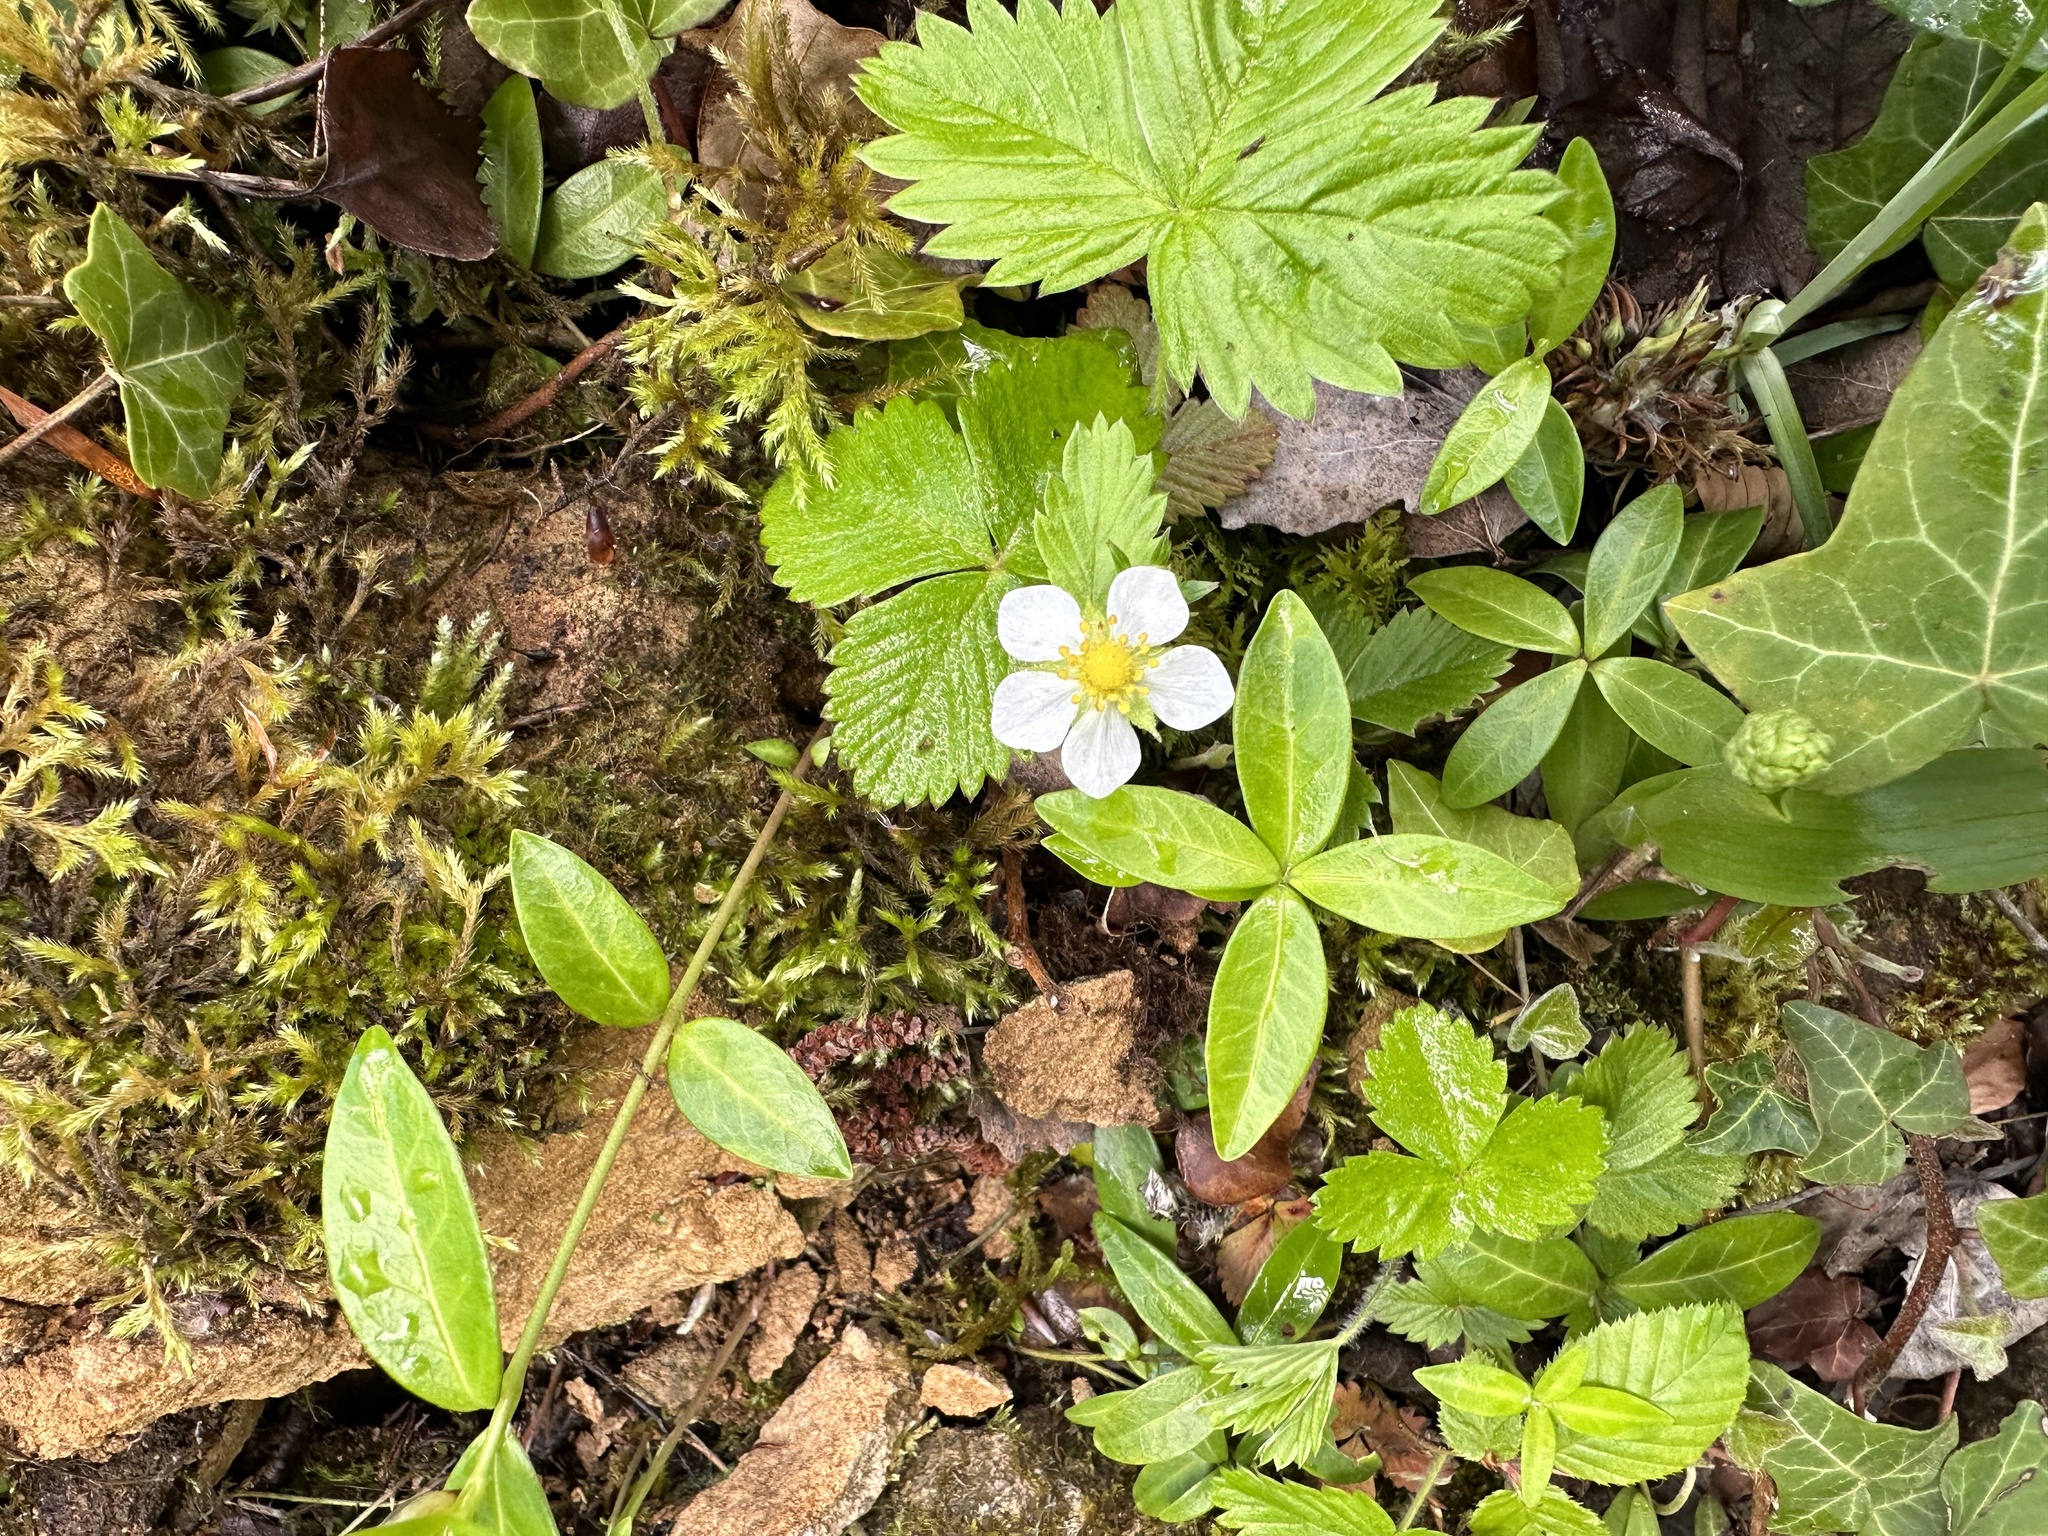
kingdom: Plantae
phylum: Tracheophyta
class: Magnoliopsida
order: Rosales
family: Rosaceae
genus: Fragaria
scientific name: Fragaria vesca
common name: Wild strawberry
